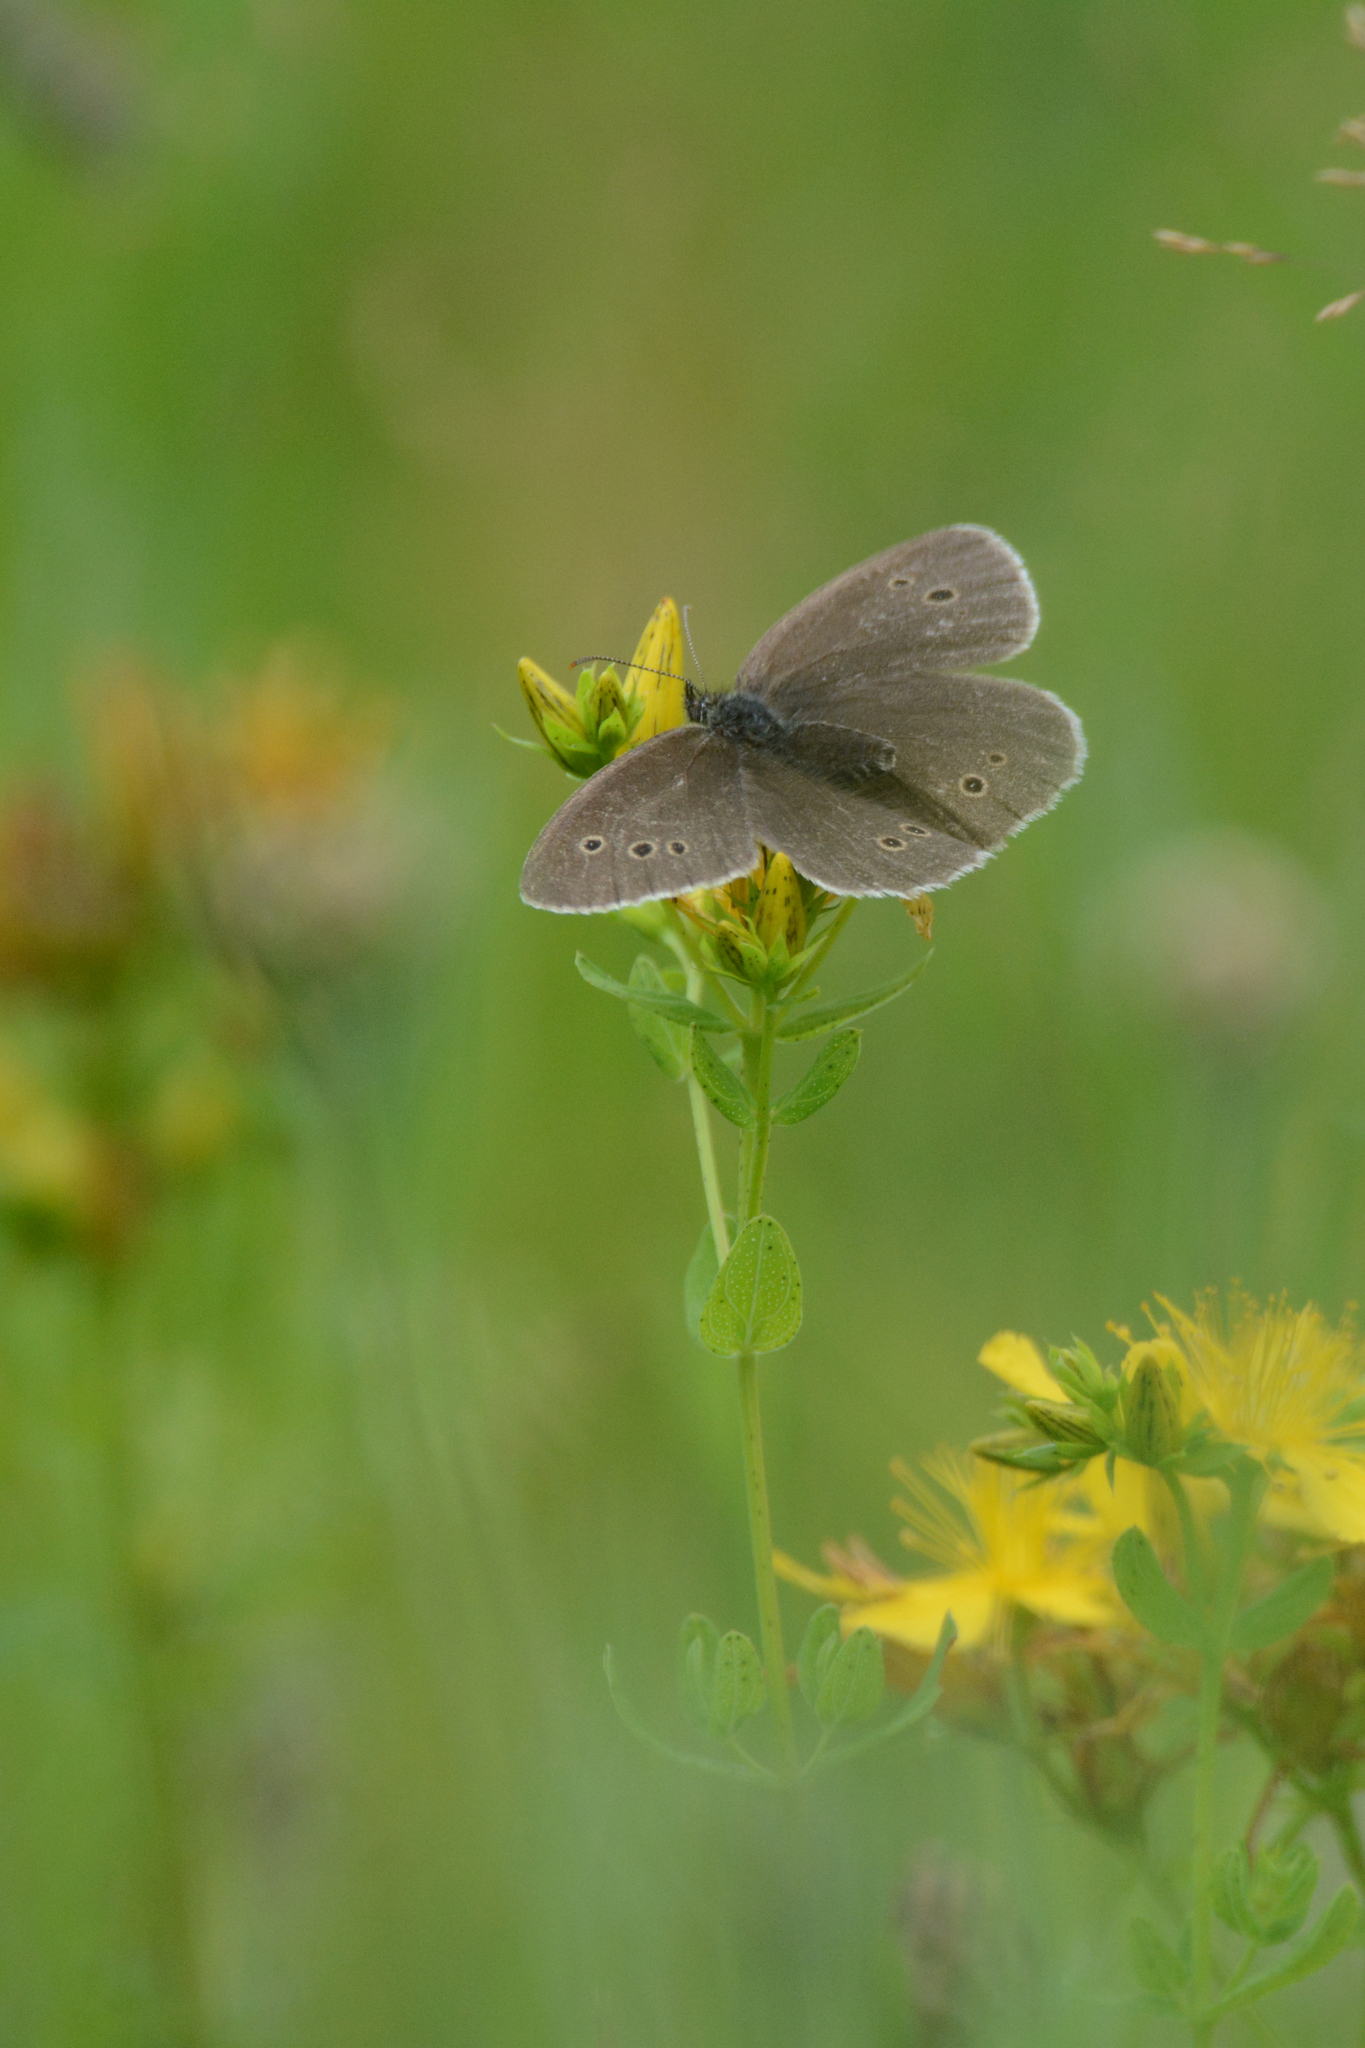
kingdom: Animalia
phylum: Arthropoda
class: Insecta
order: Lepidoptera
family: Nymphalidae
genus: Aphantopus
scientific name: Aphantopus hyperantus
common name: Ringlet
